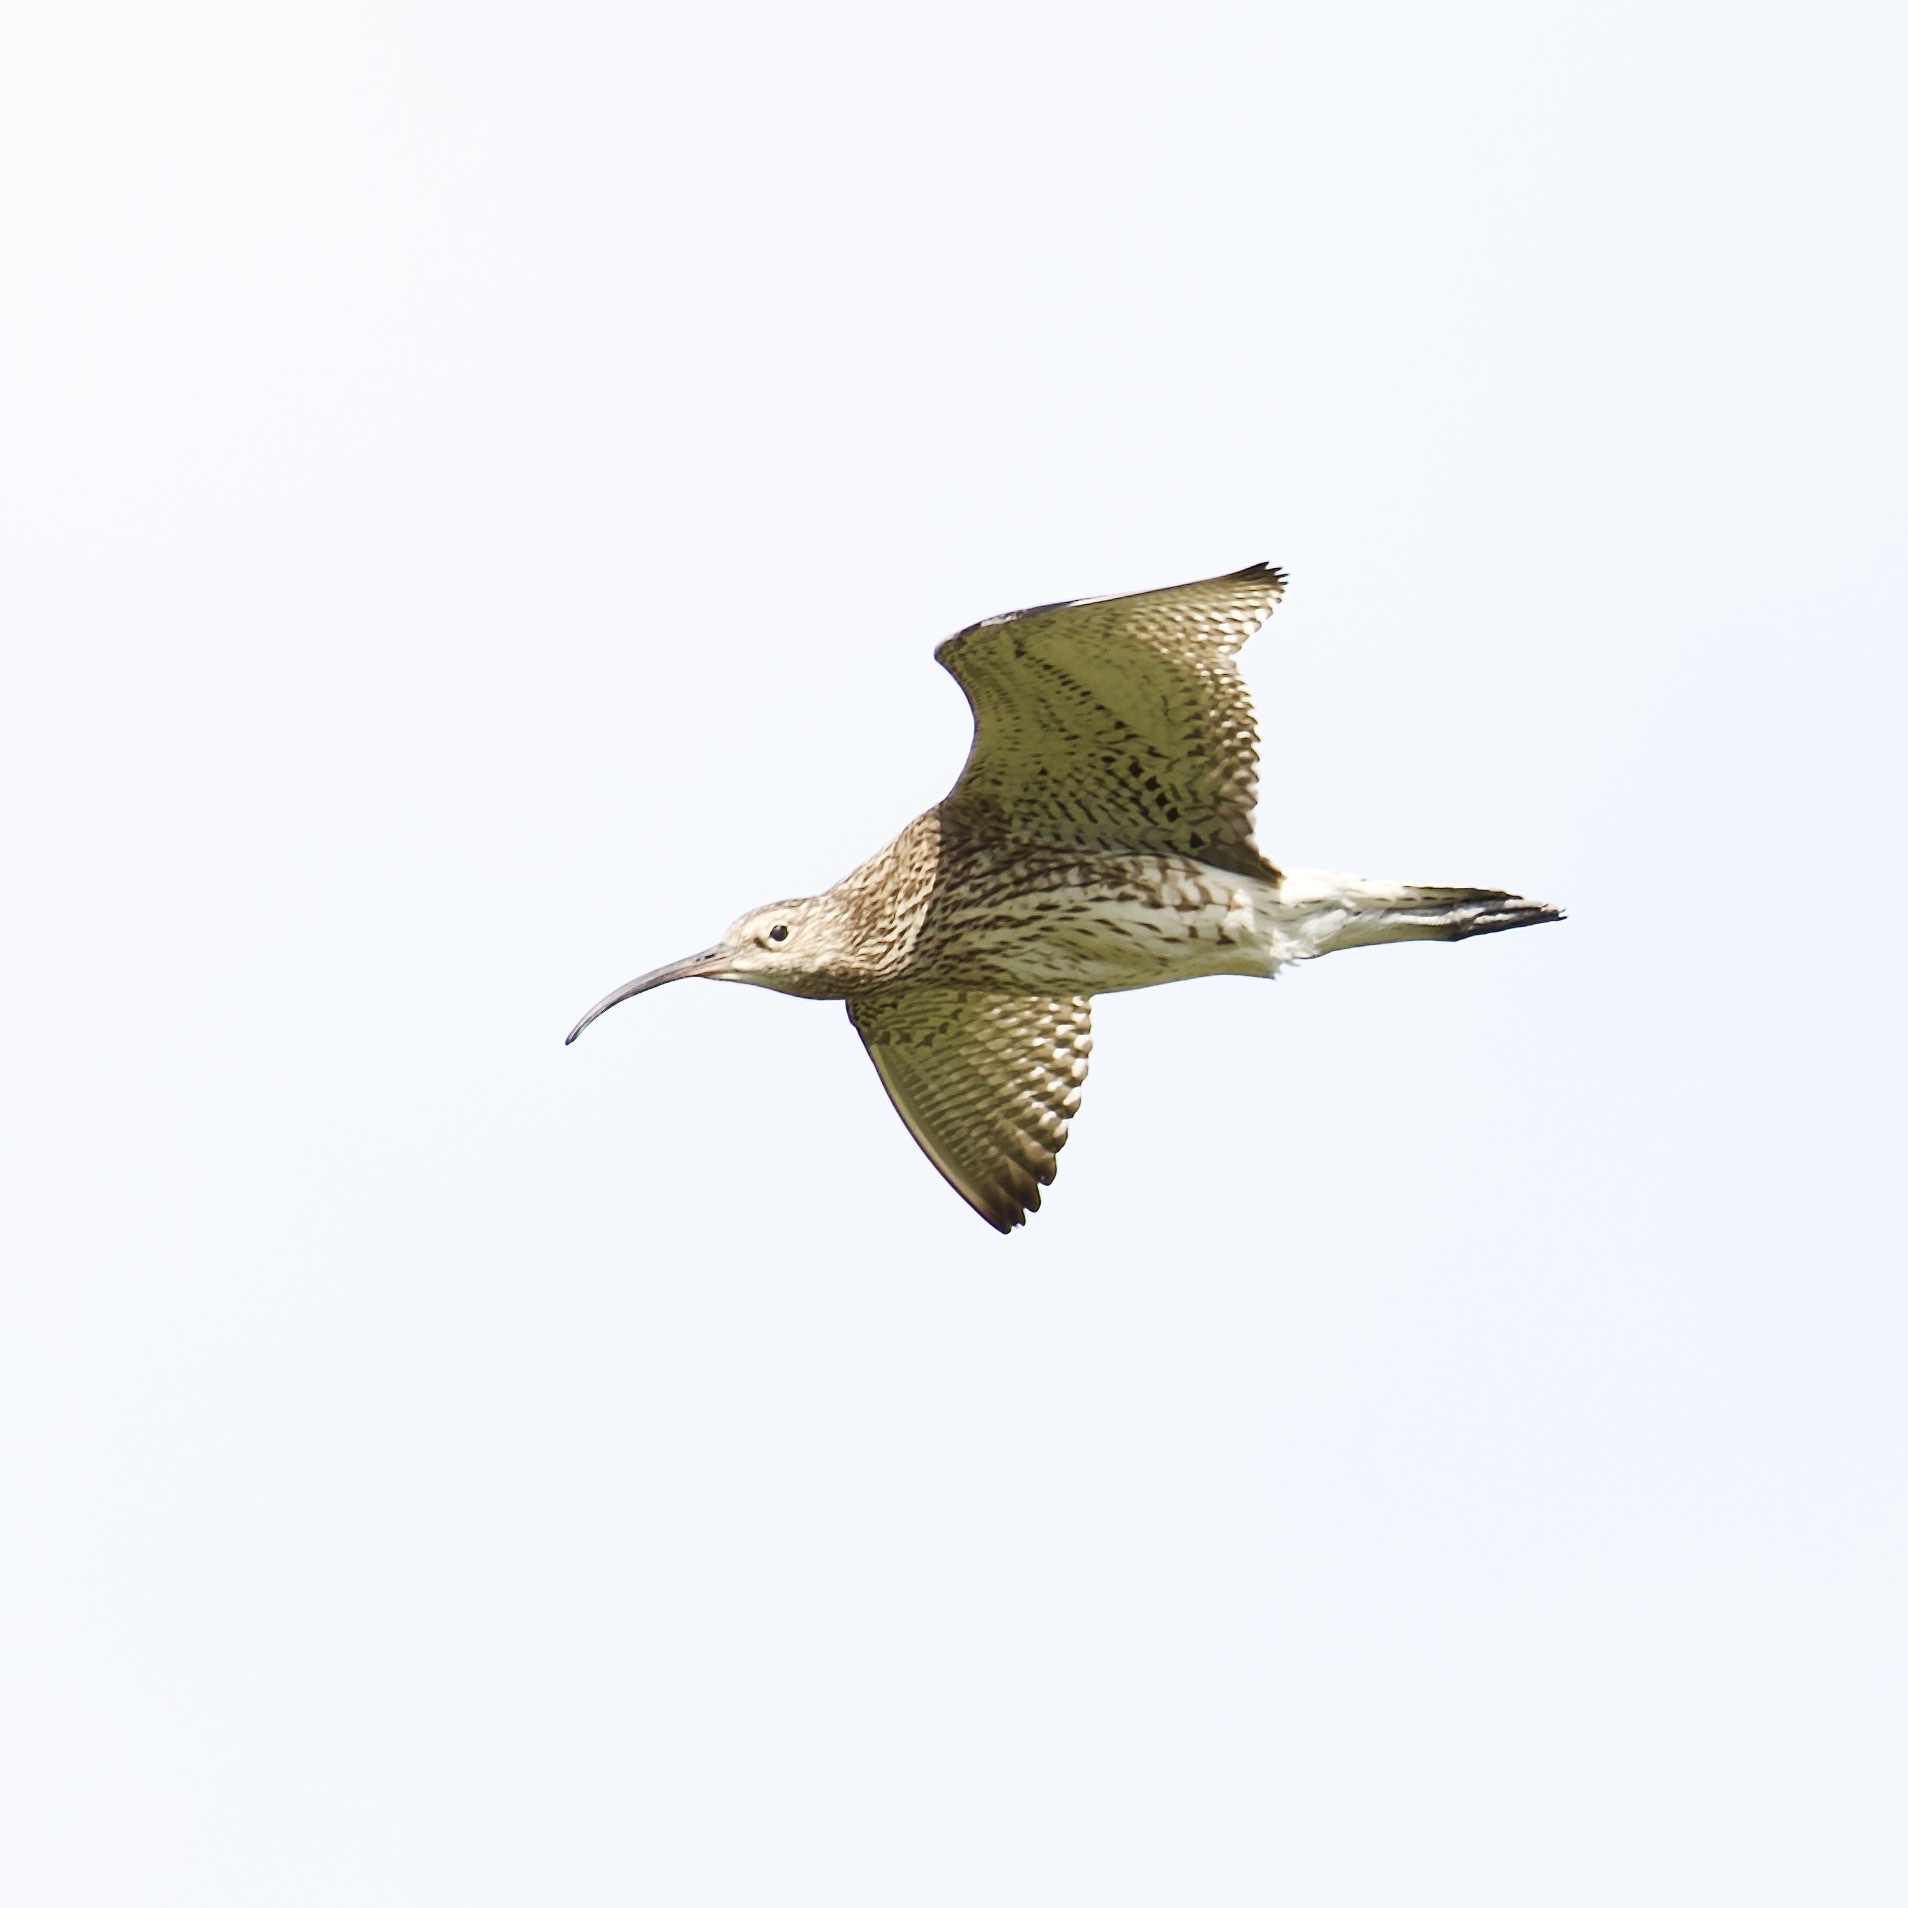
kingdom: Animalia
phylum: Chordata
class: Aves
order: Charadriiformes
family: Scolopacidae
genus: Numenius
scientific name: Numenius arquata
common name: Eurasian curlew
